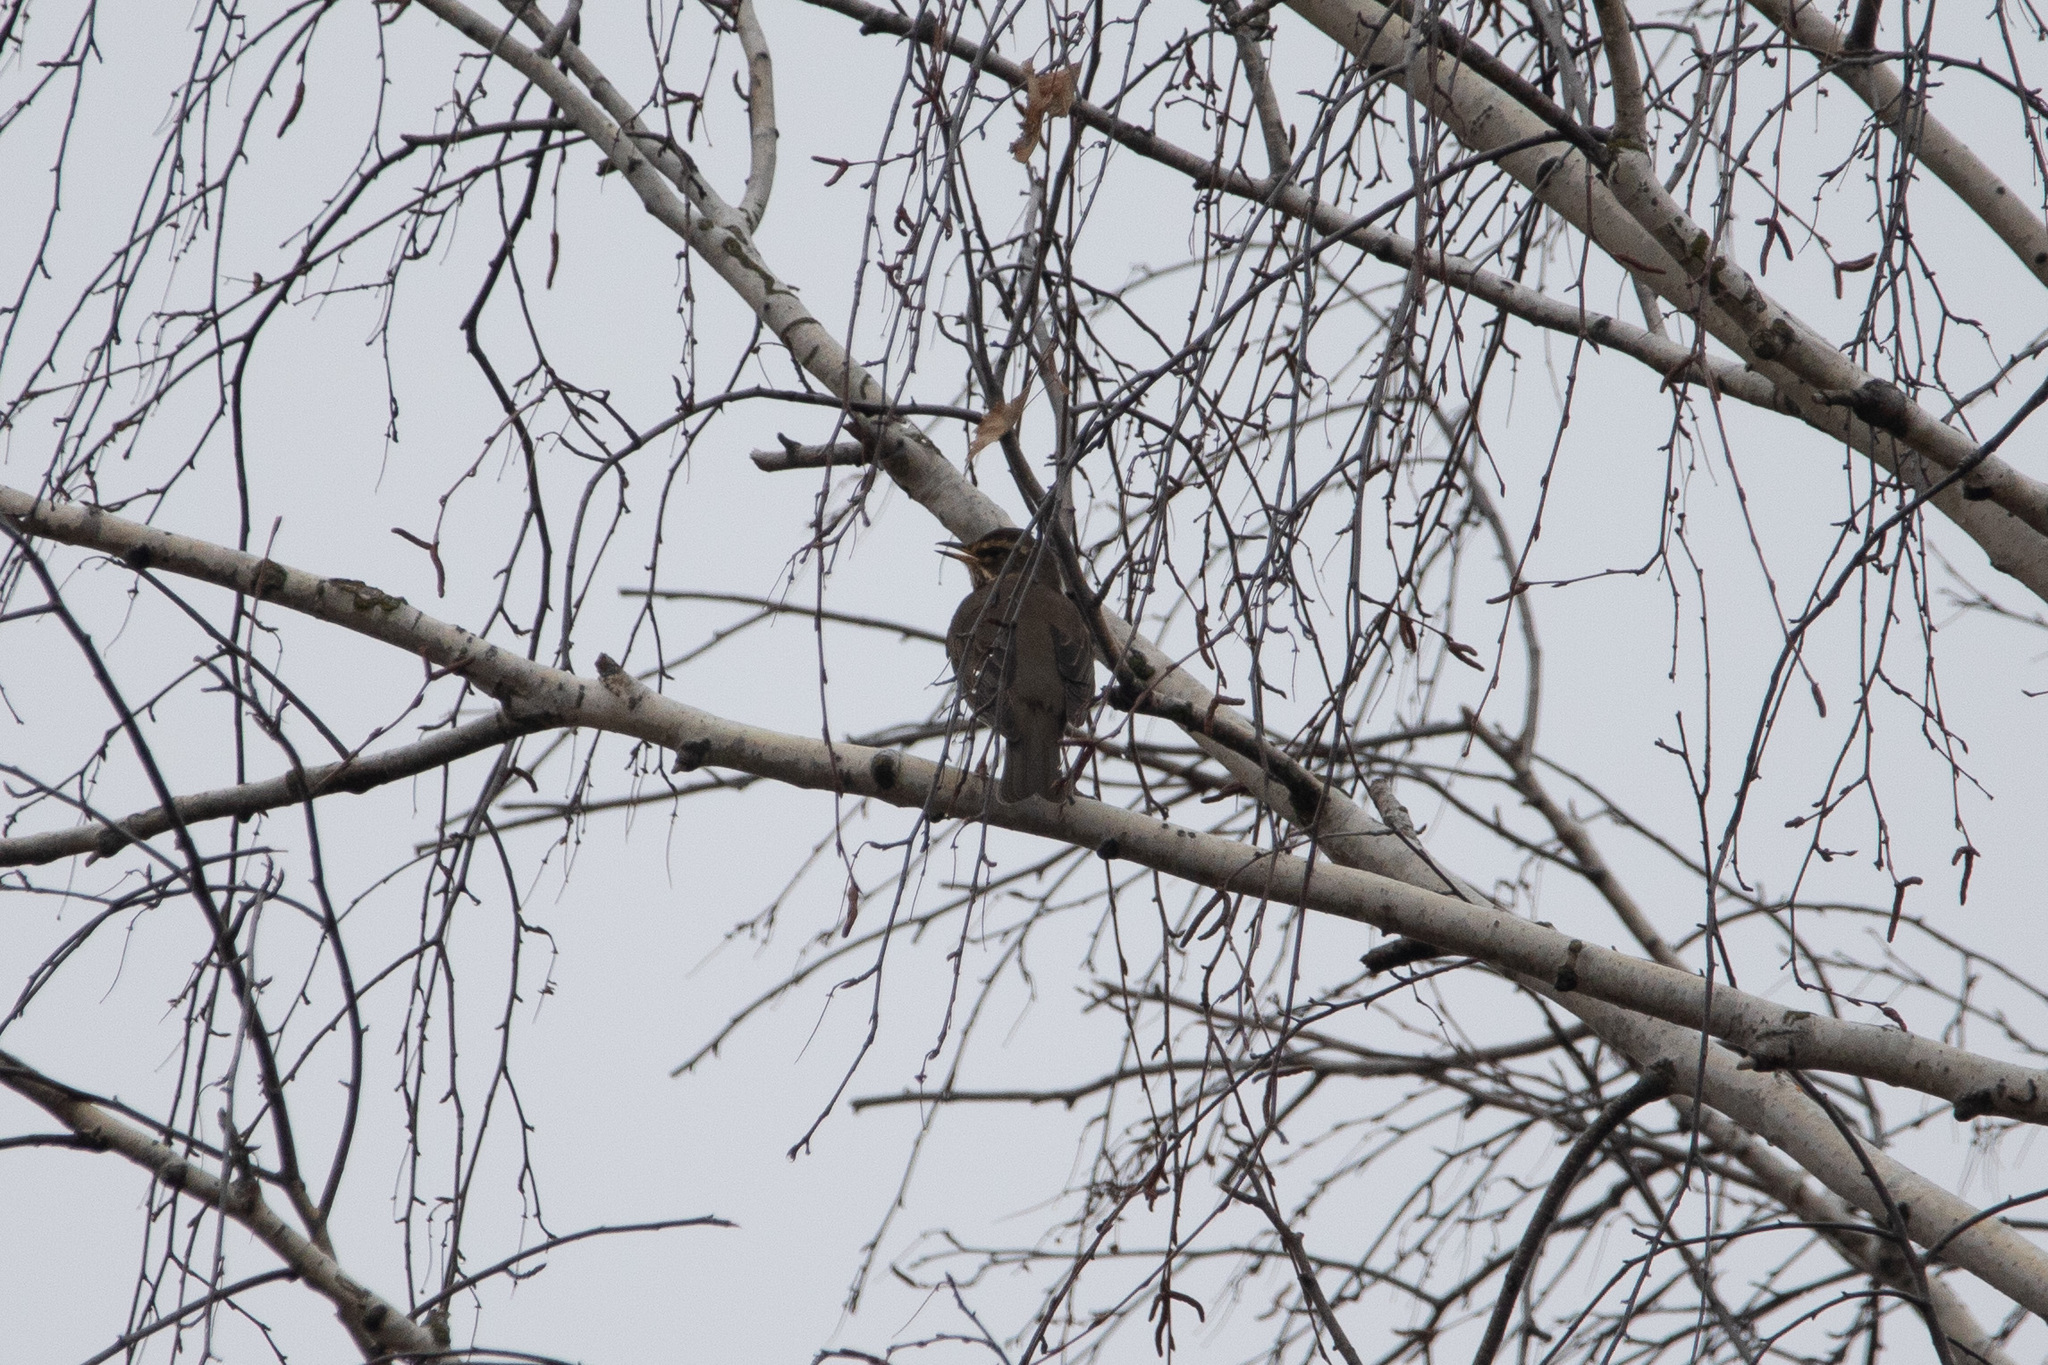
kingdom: Animalia
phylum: Chordata
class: Aves
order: Passeriformes
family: Turdidae
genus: Turdus
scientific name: Turdus iliacus
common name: Redwing
